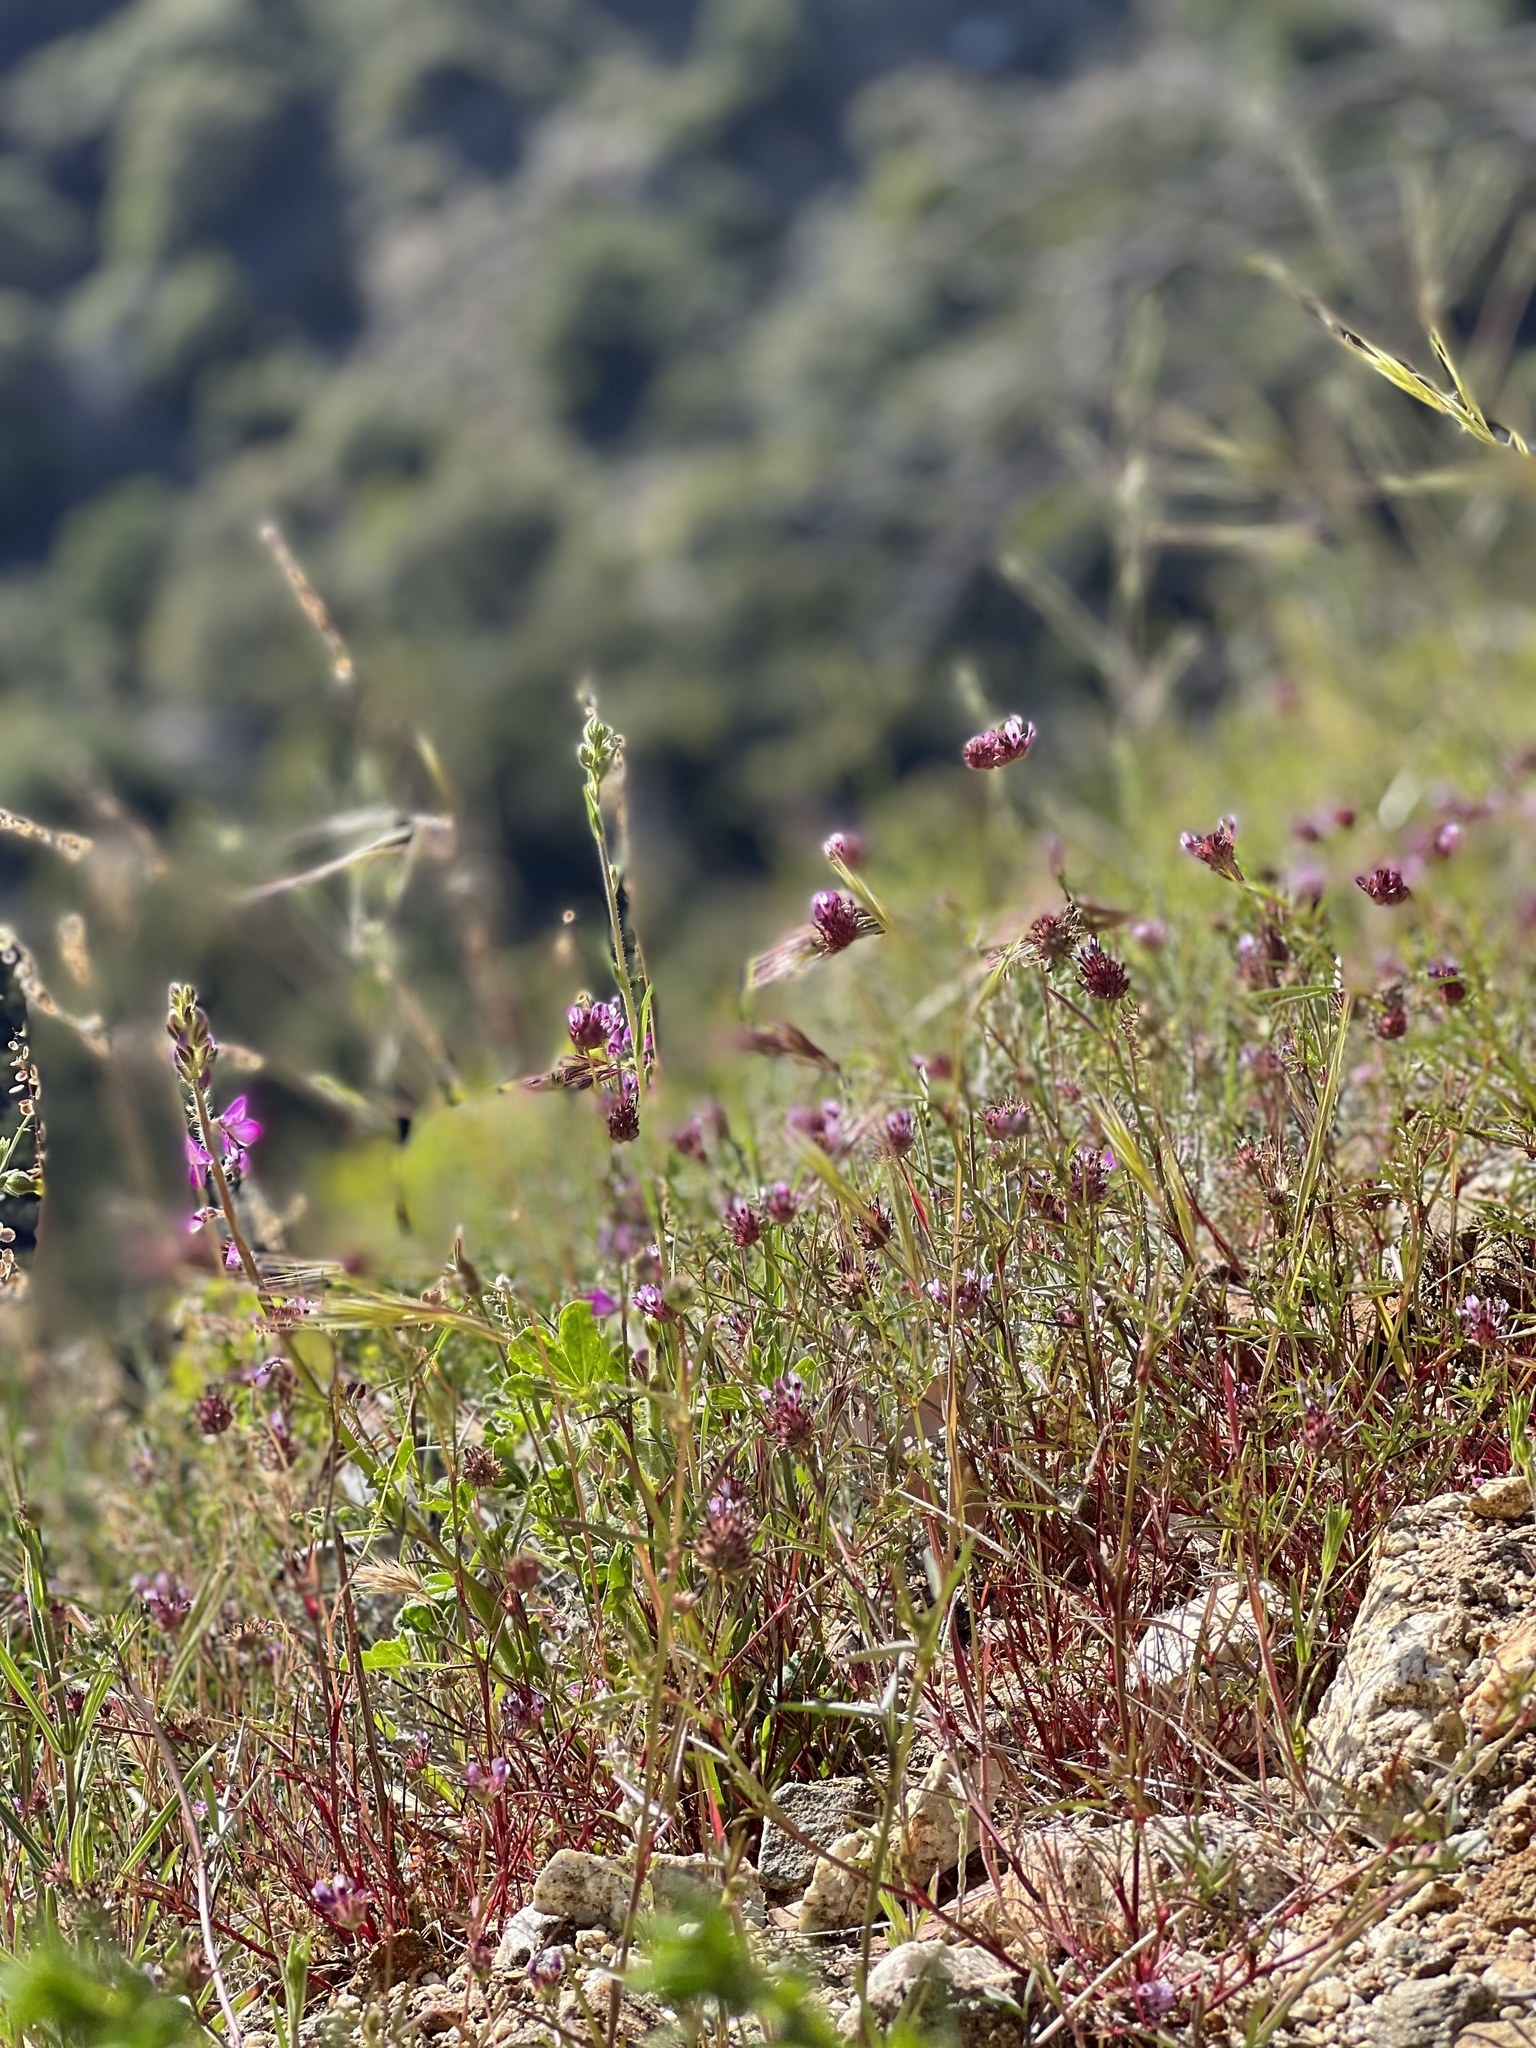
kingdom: Plantae
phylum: Tracheophyta
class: Magnoliopsida
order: Fabales
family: Fabaceae
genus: Trifolium
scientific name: Trifolium willdenovii
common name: Tomcat clover
